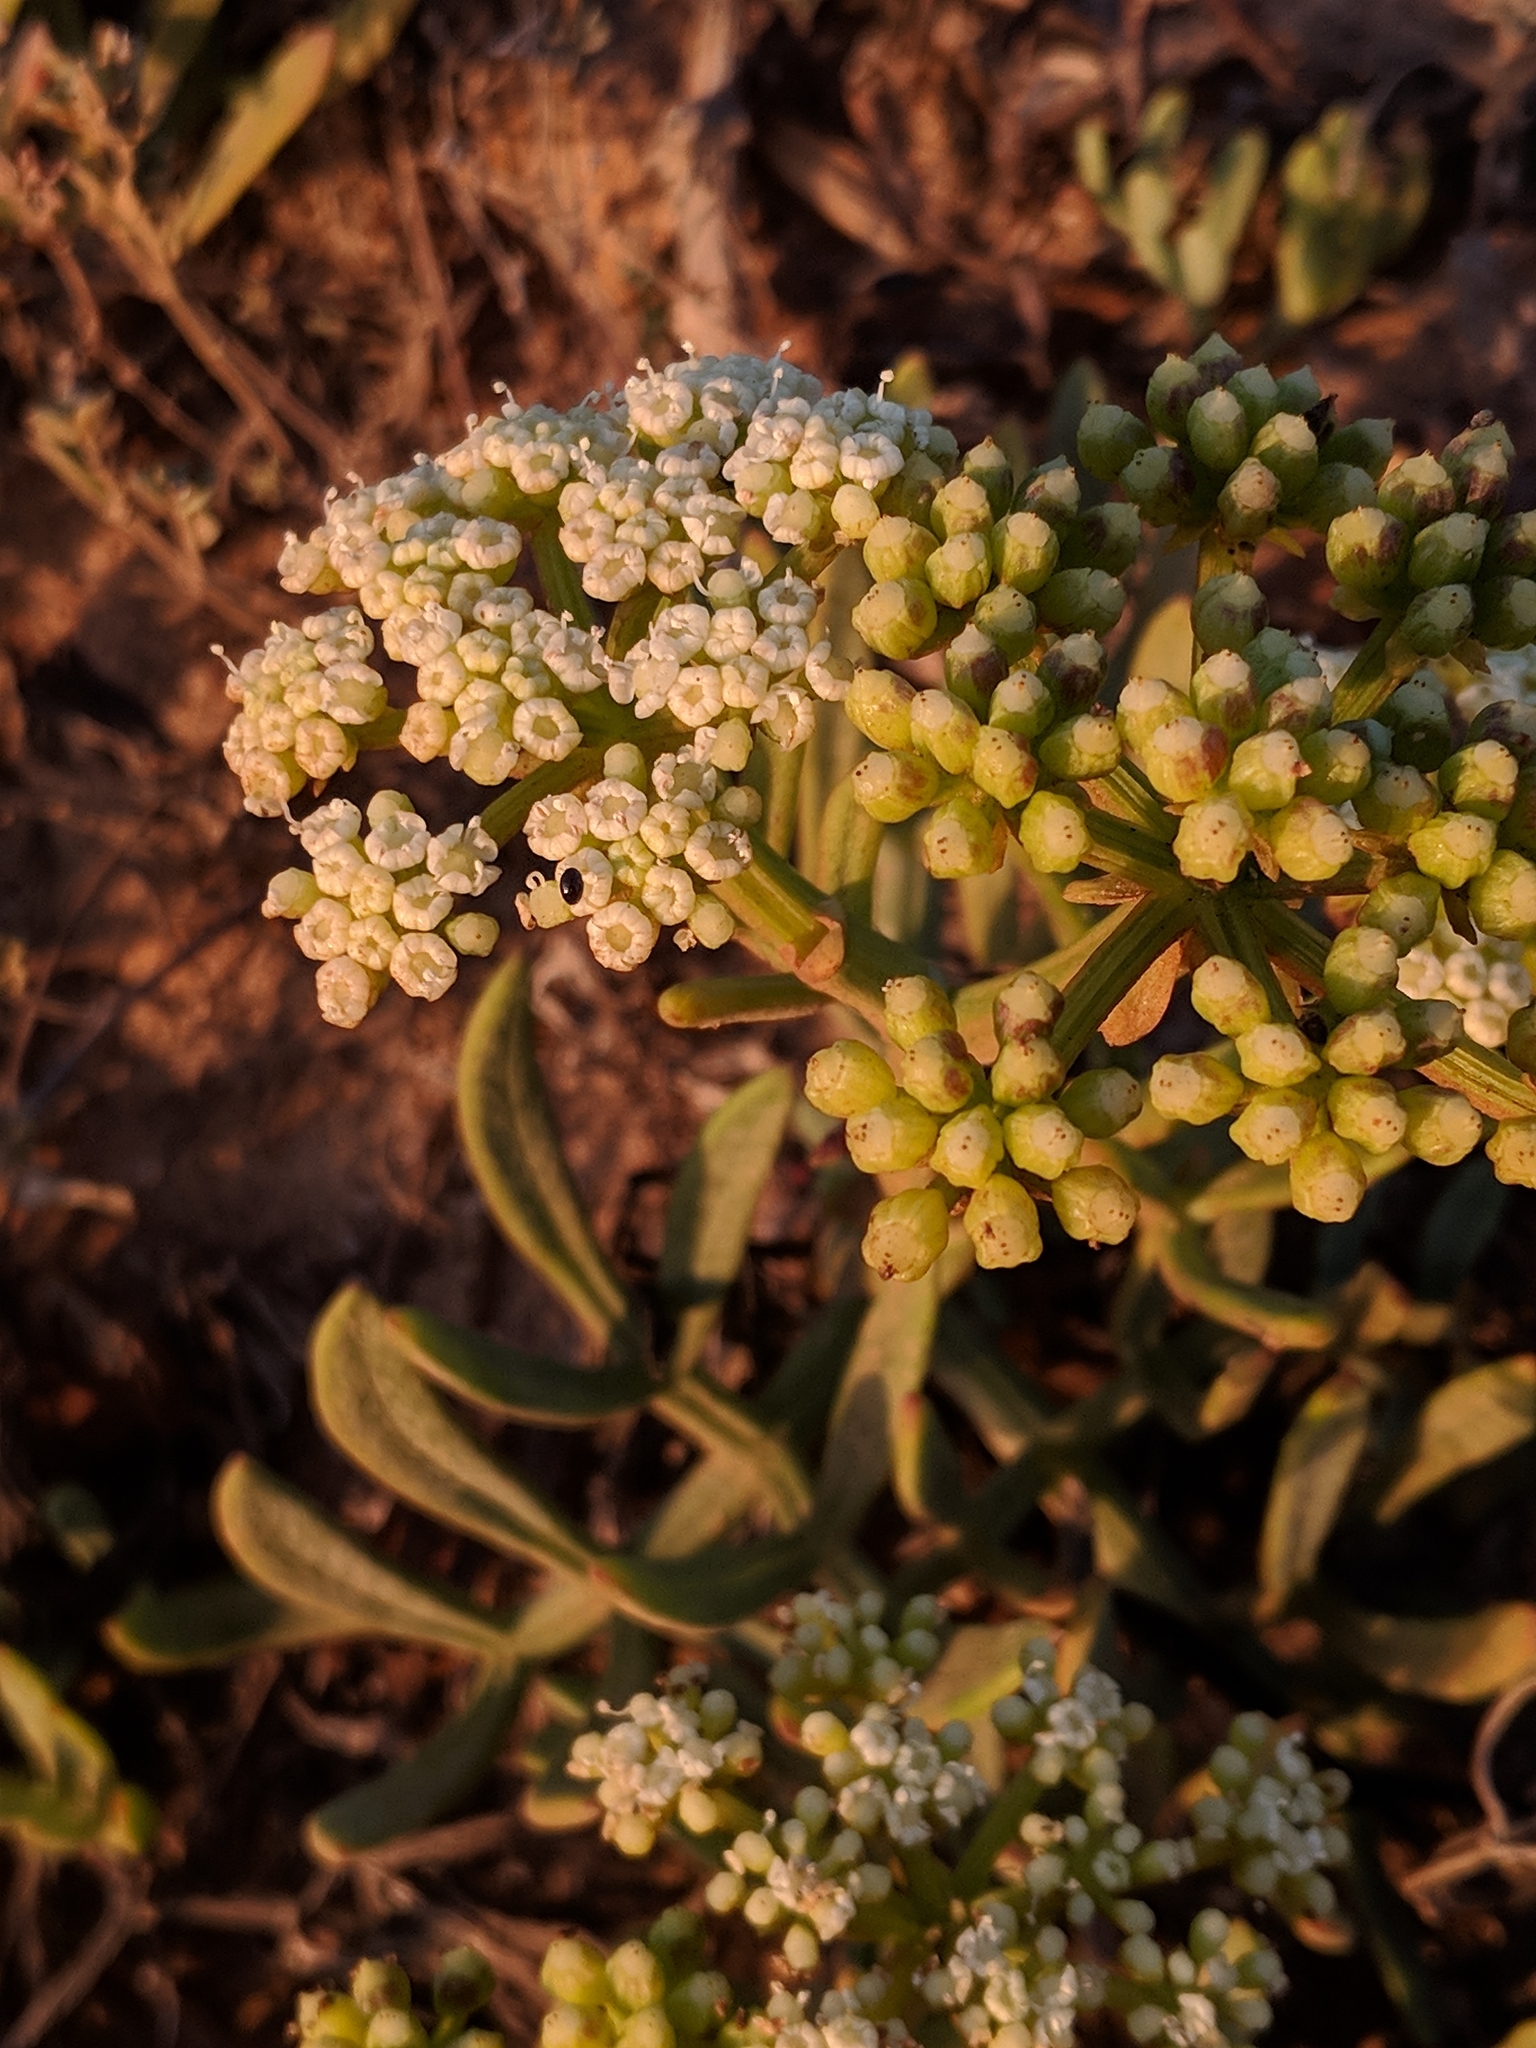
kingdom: Plantae
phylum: Tracheophyta
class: Magnoliopsida
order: Apiales
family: Apiaceae
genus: Crithmum
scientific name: Crithmum maritimum
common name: Rock samphire
